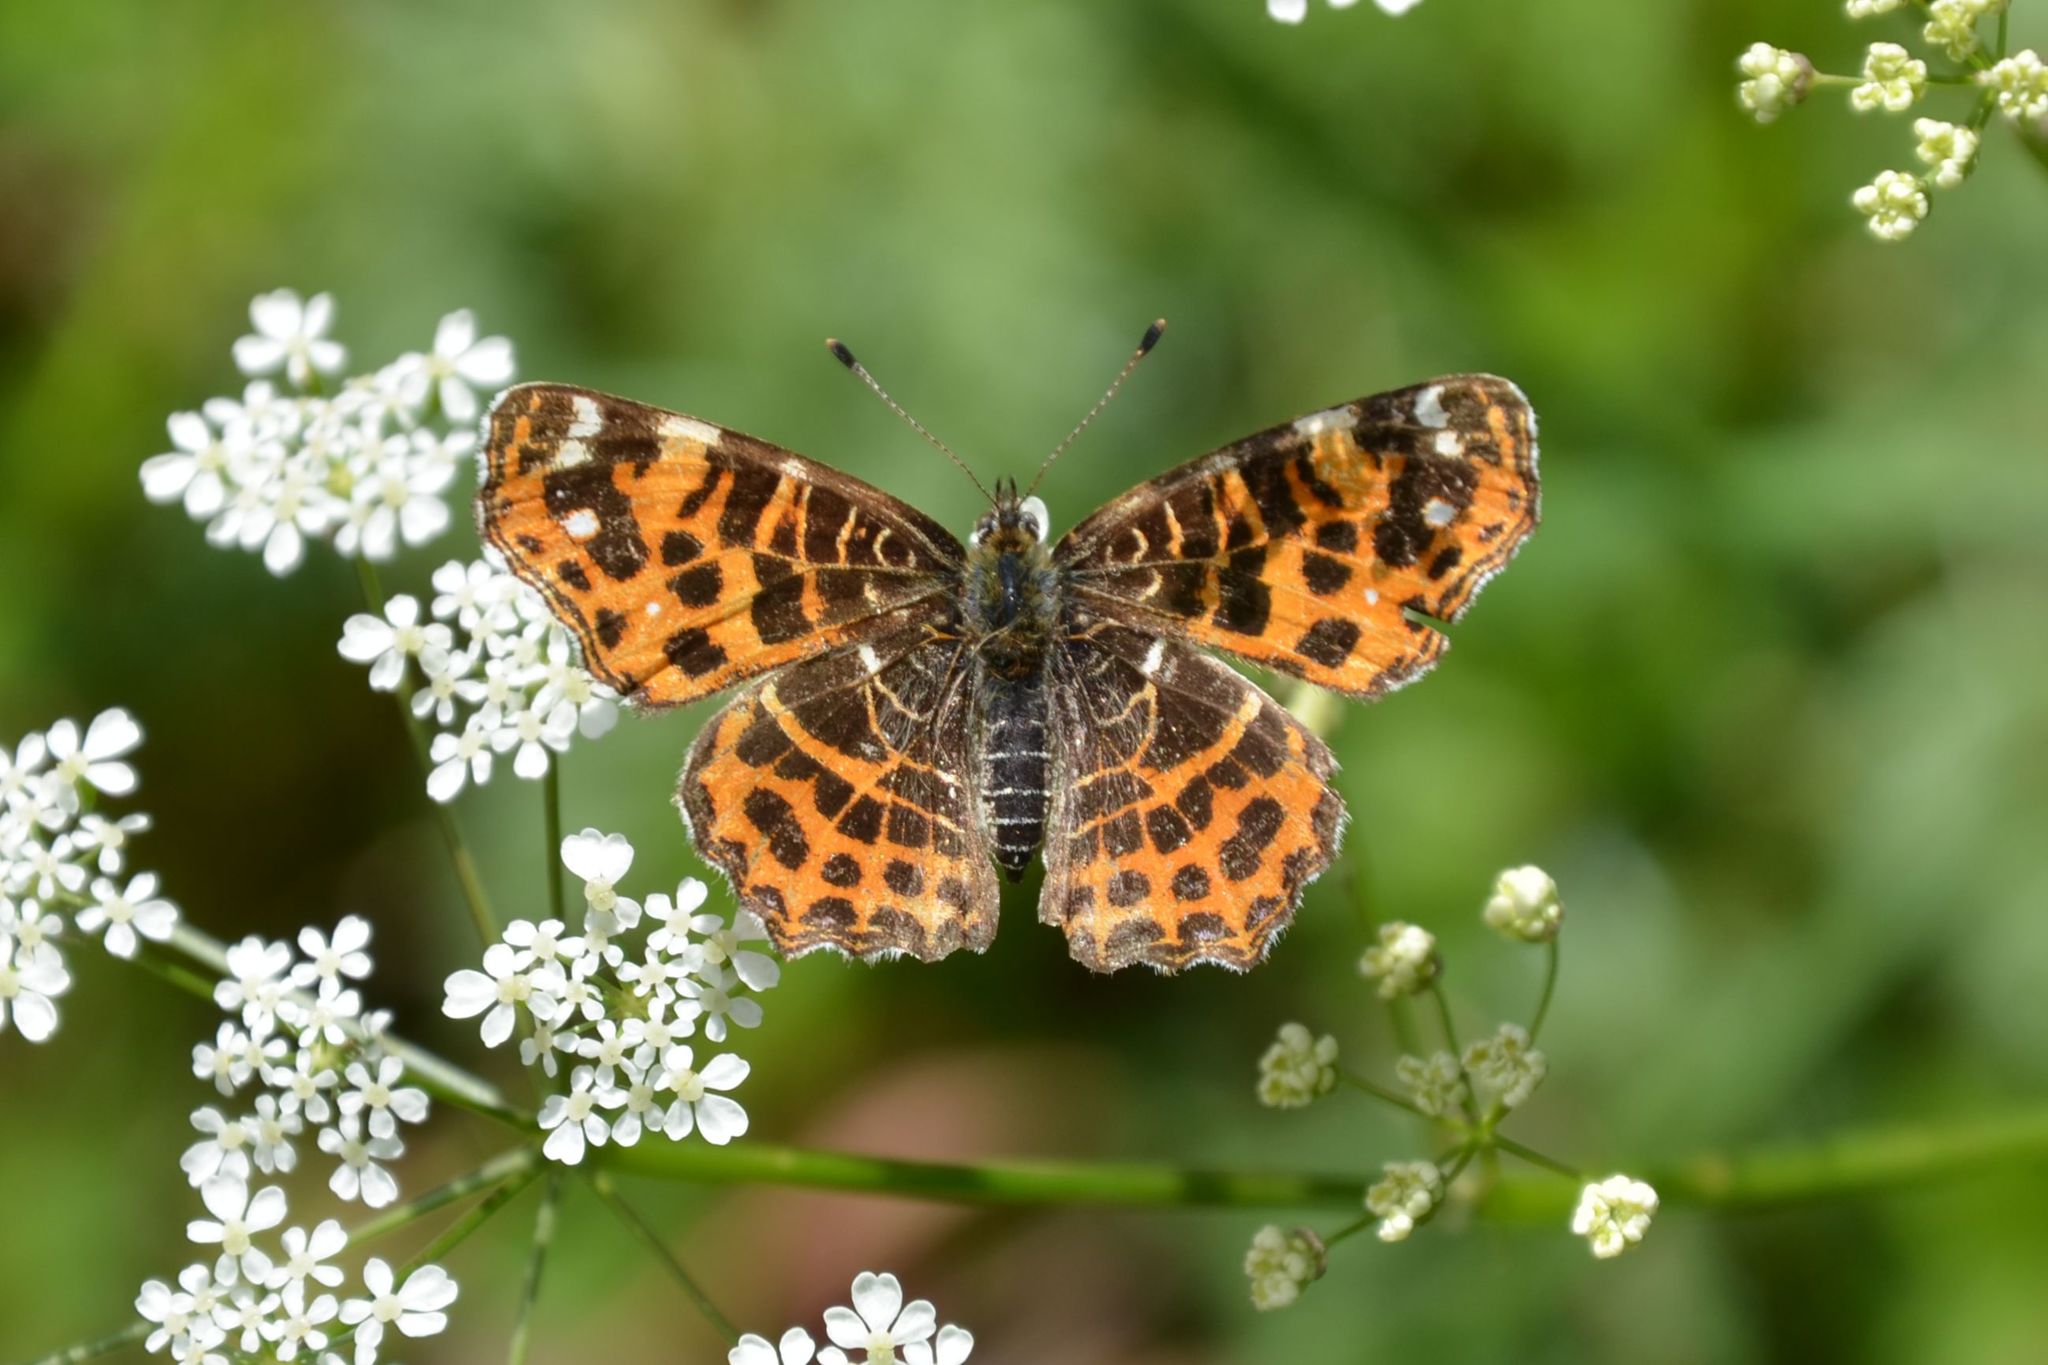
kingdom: Animalia
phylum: Arthropoda
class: Insecta
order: Lepidoptera
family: Nymphalidae
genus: Araschnia
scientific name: Araschnia levana
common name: Map butterfly
